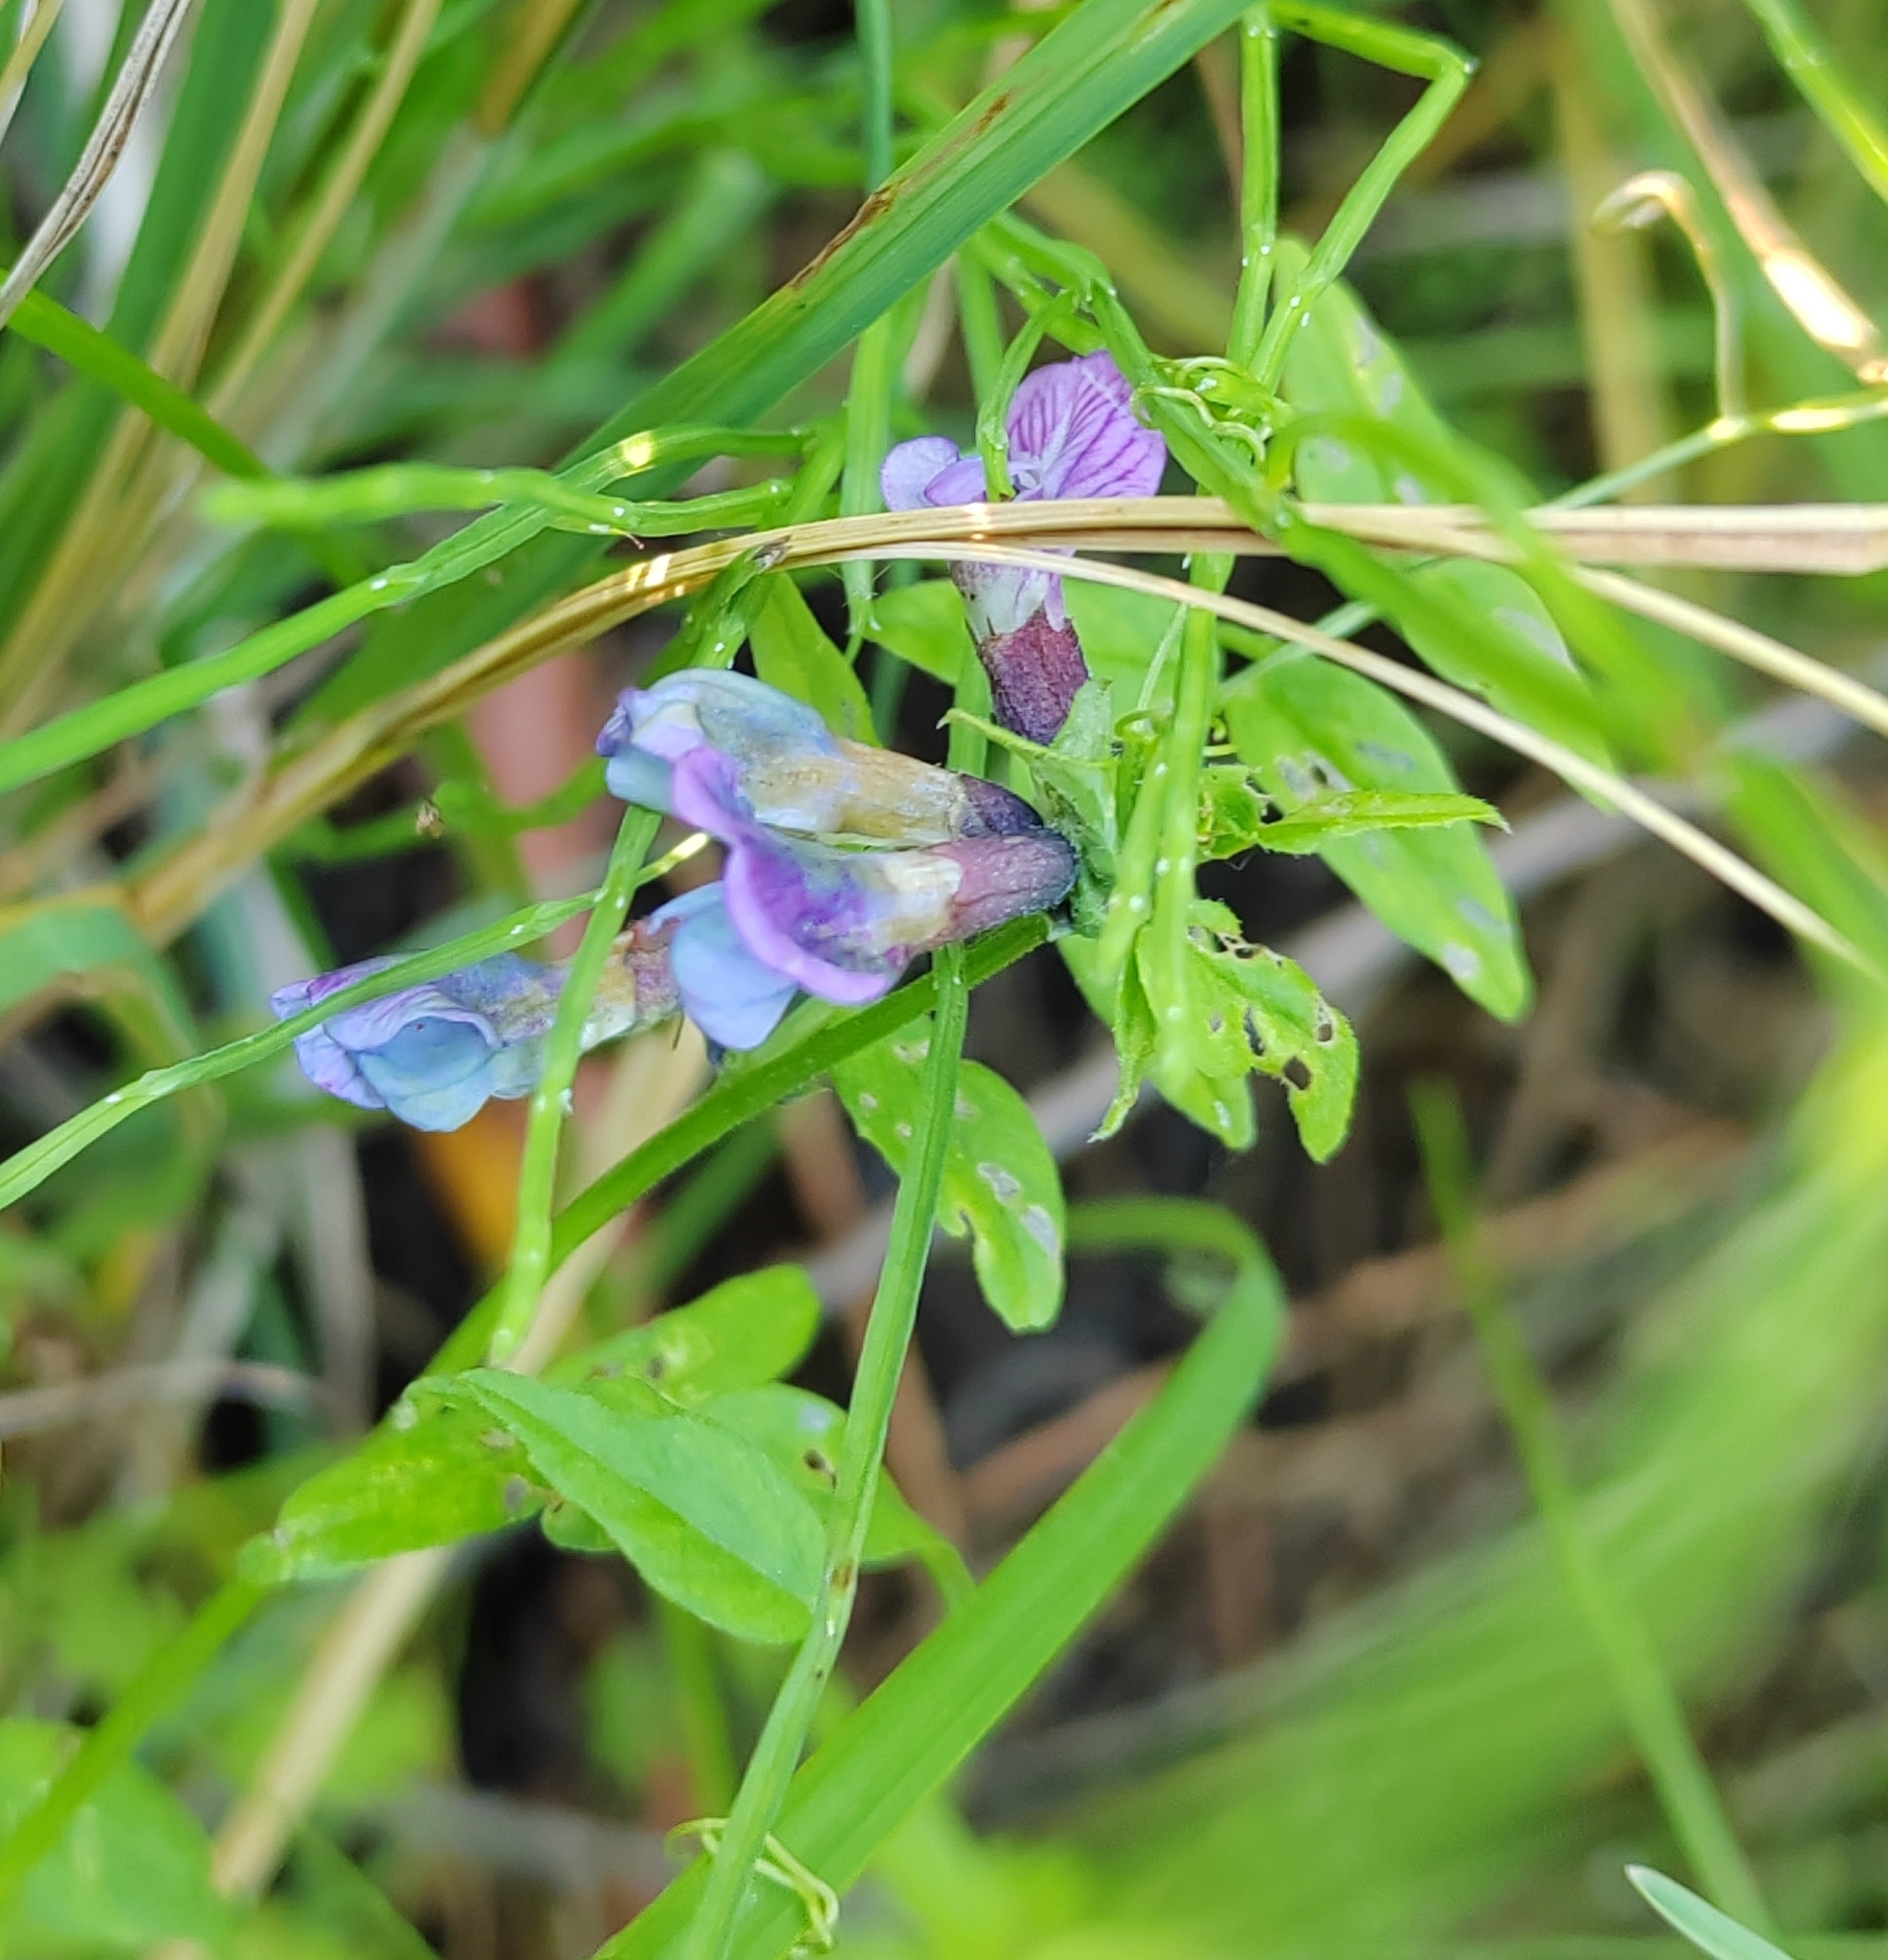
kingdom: Plantae
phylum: Tracheophyta
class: Magnoliopsida
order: Fabales
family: Fabaceae
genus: Vicia
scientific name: Vicia sepium
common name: Bush vetch
